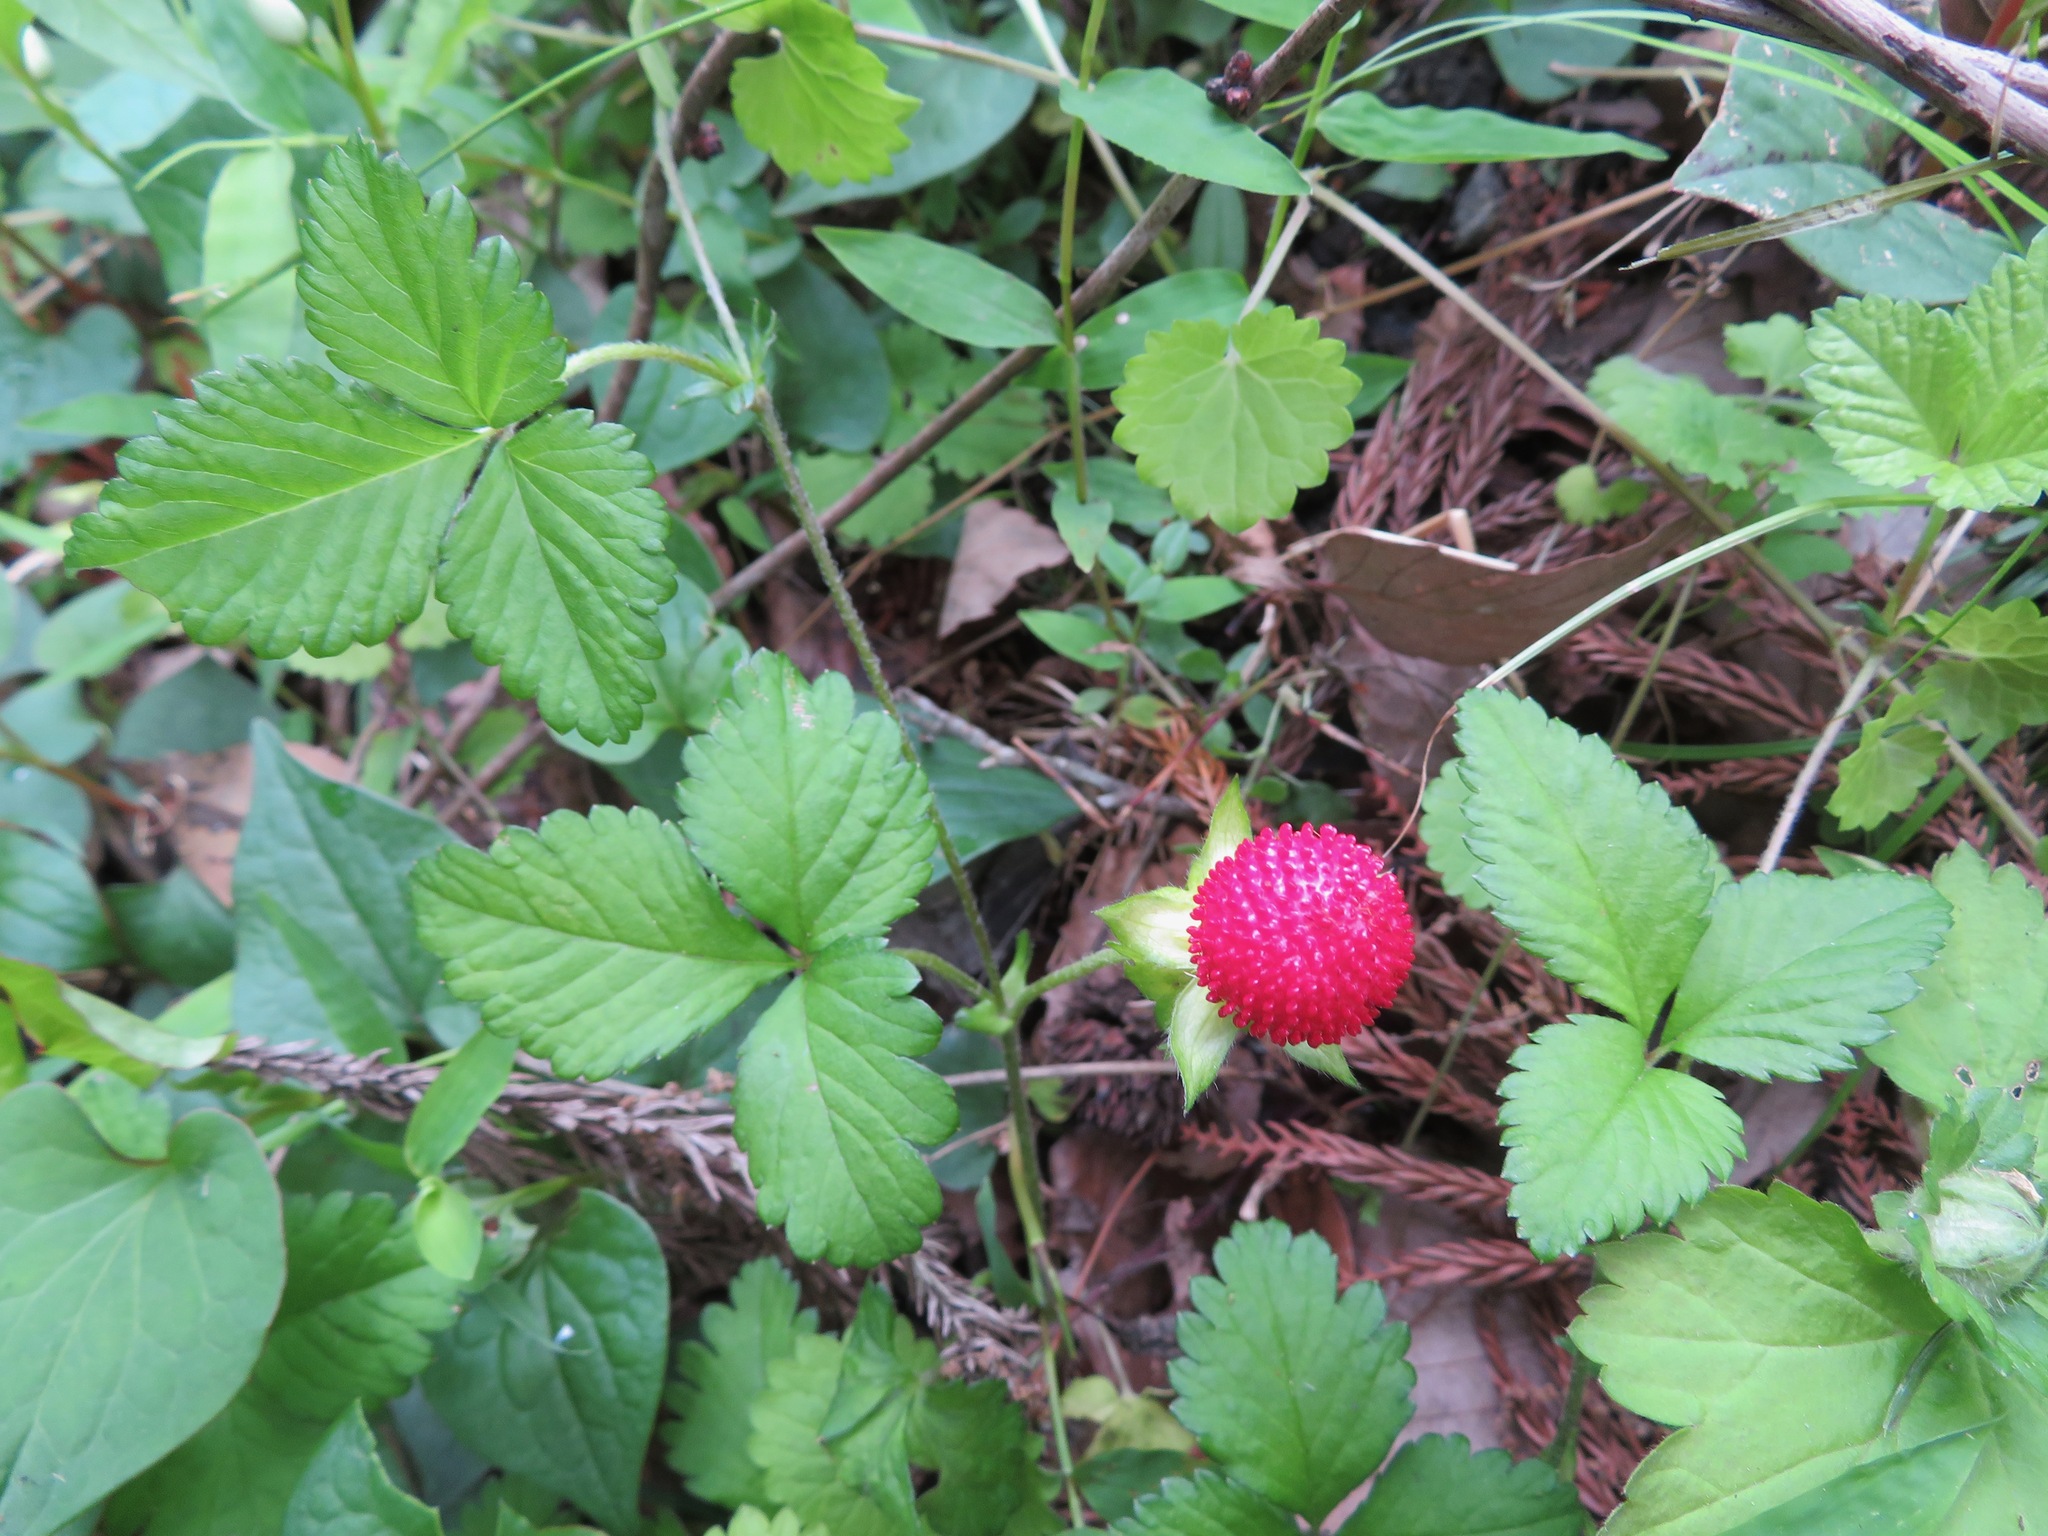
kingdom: Plantae
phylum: Tracheophyta
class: Magnoliopsida
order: Rosales
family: Rosaceae
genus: Potentilla
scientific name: Potentilla indica
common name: Yellow-flowered strawberry
